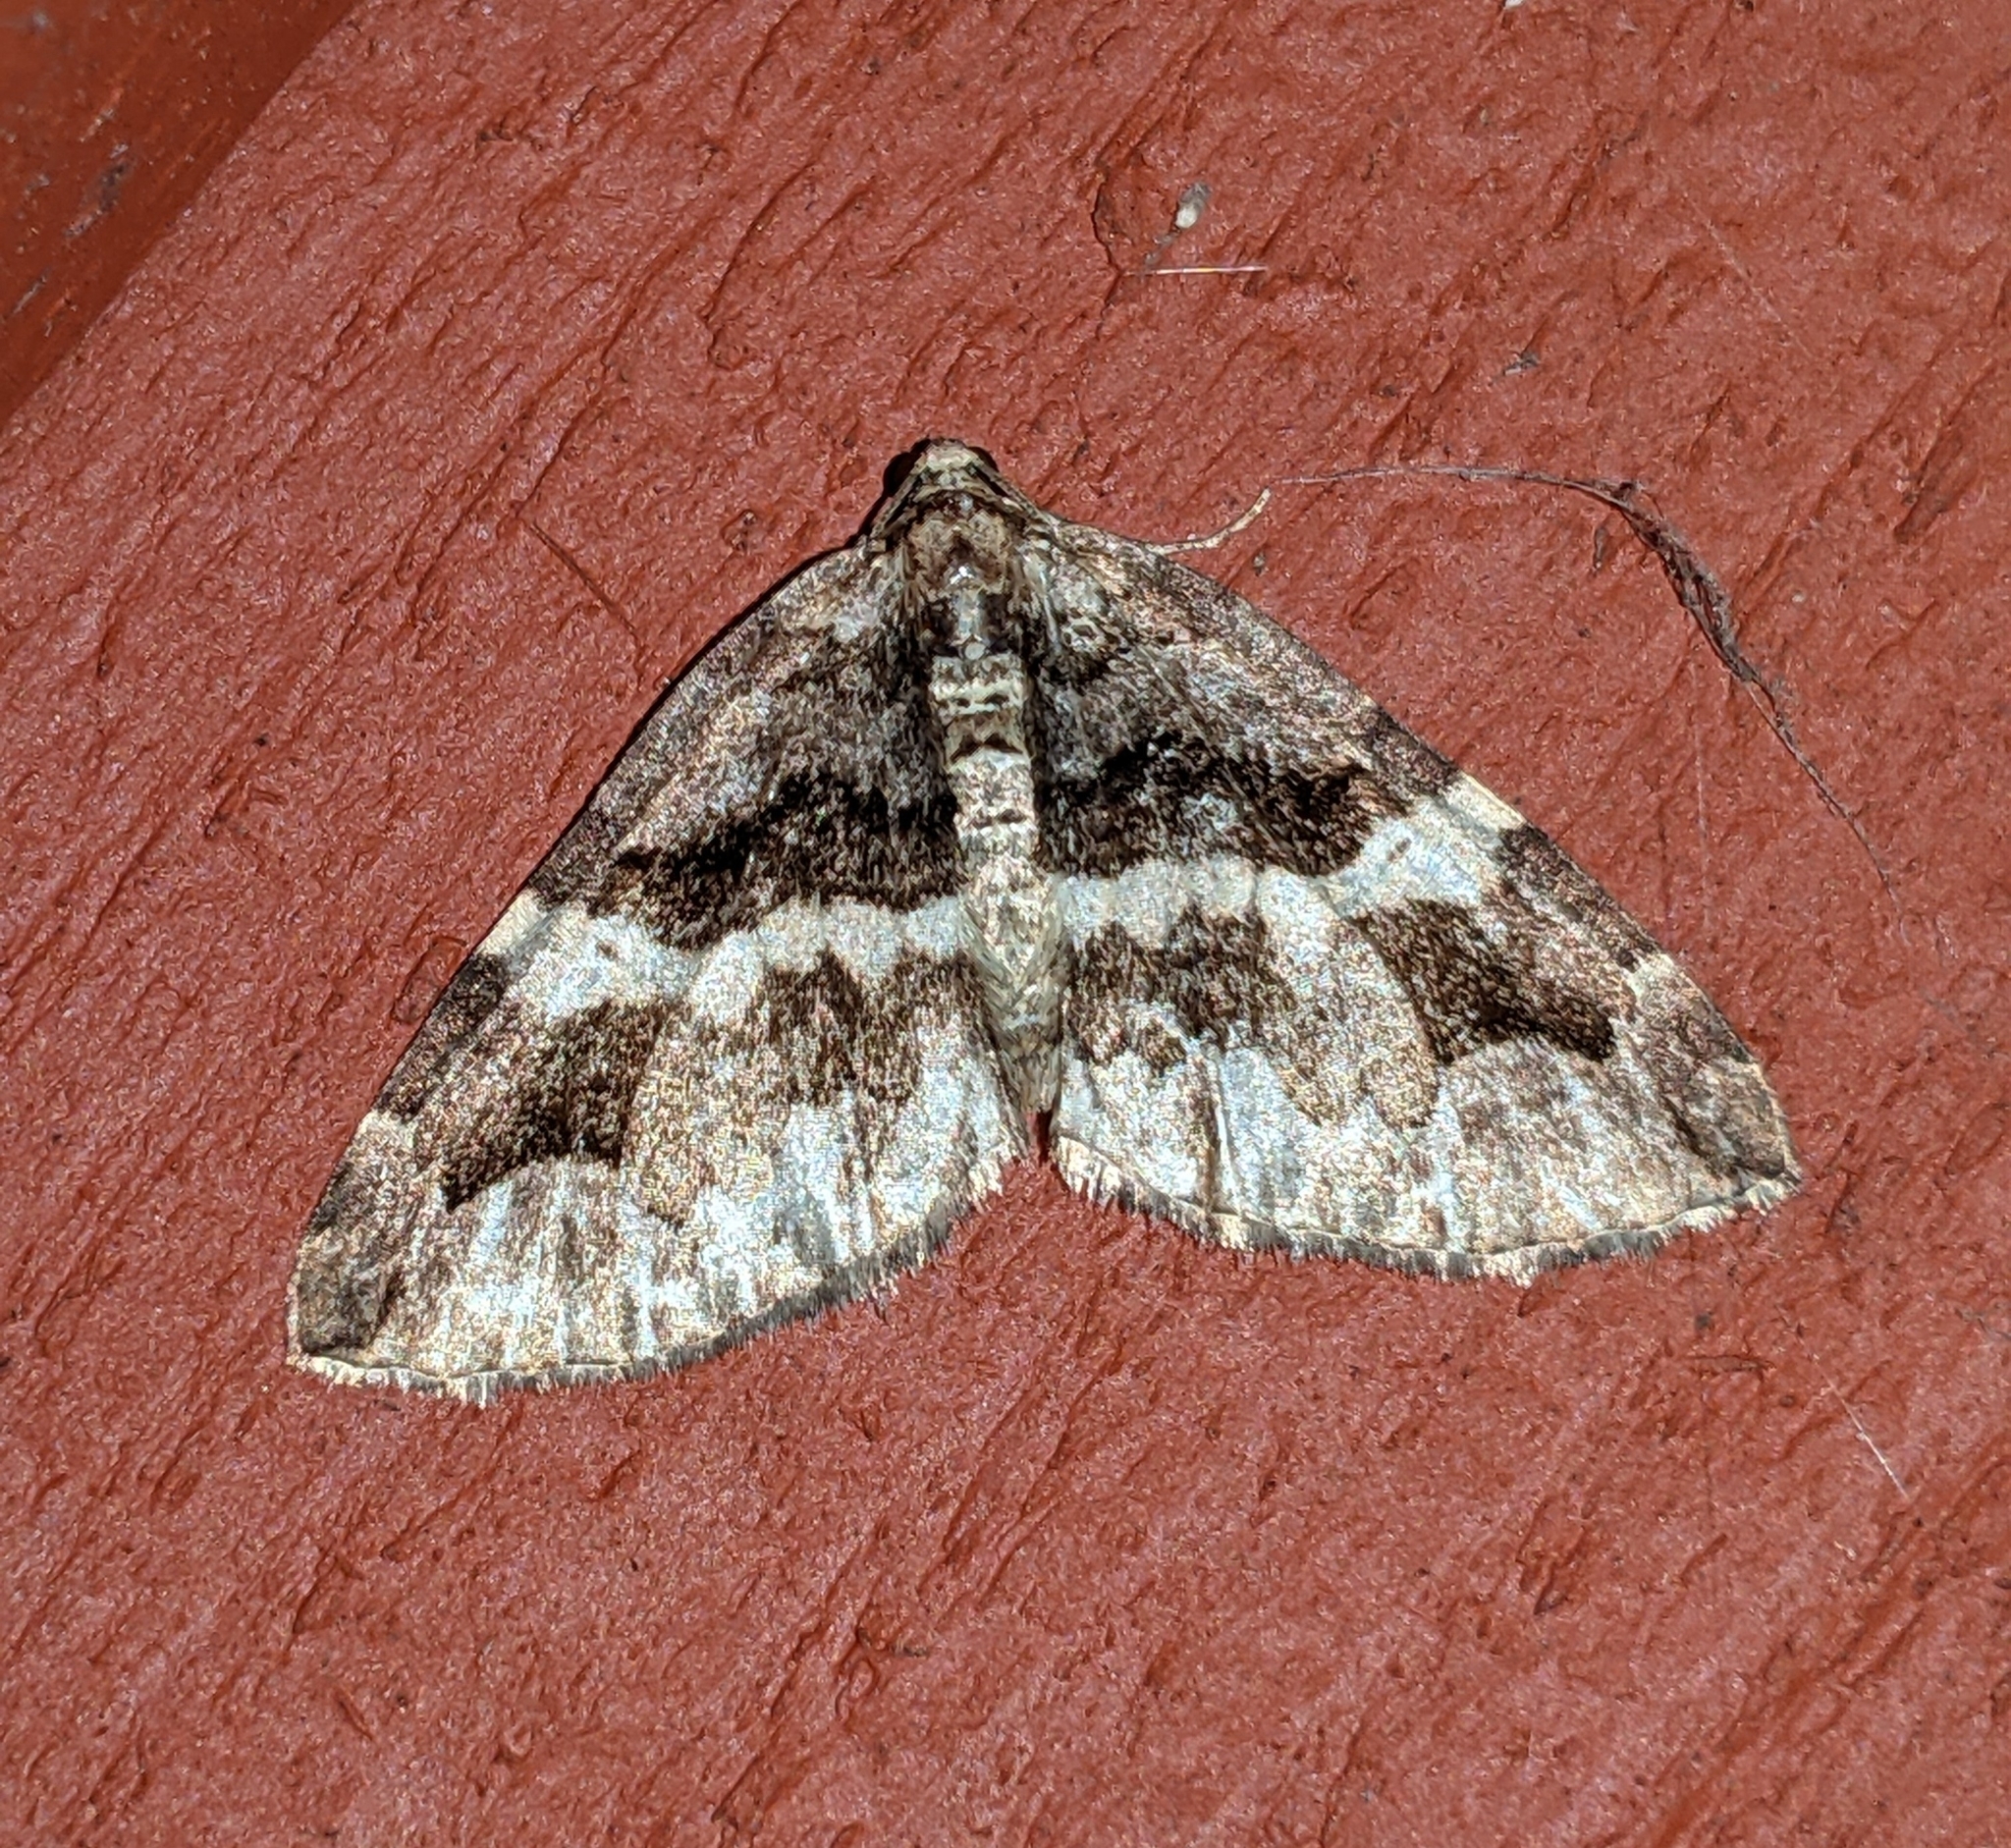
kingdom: Animalia
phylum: Arthropoda
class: Insecta
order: Lepidoptera
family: Geometridae
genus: Anticlea
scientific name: Anticlea vasiliata
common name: Variable carpet
